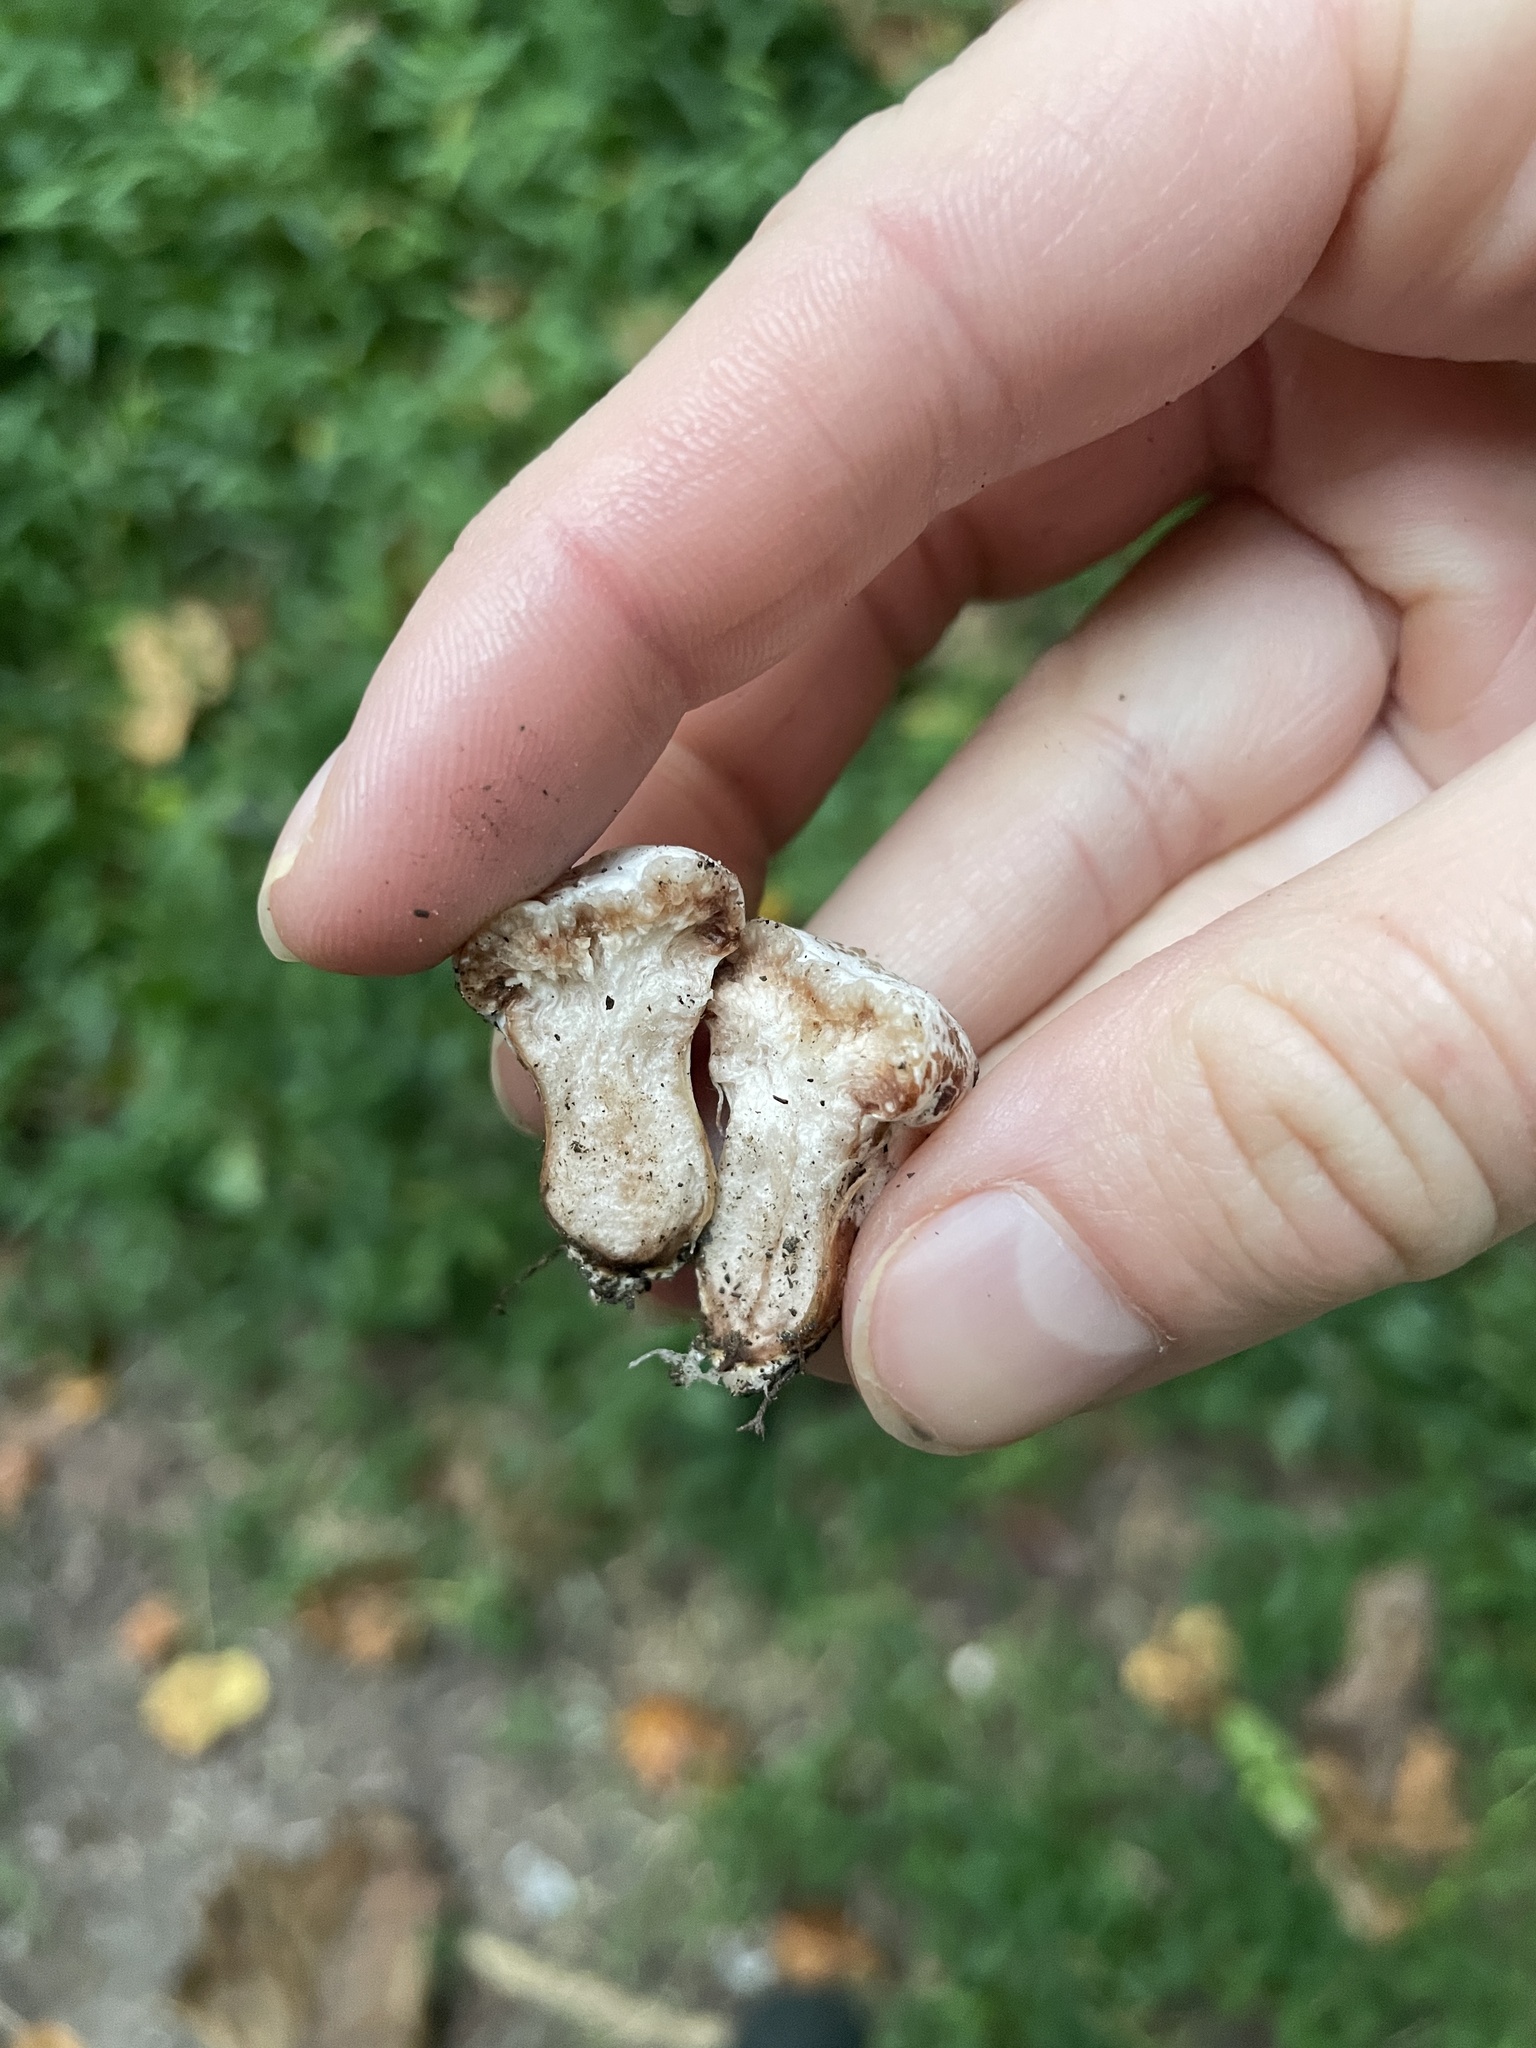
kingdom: Fungi
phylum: Basidiomycota
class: Agaricomycetes
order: Agaricales
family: Entolomataceae
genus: Entoloma
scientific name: Entoloma abortivum
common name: Aborted entoloma
